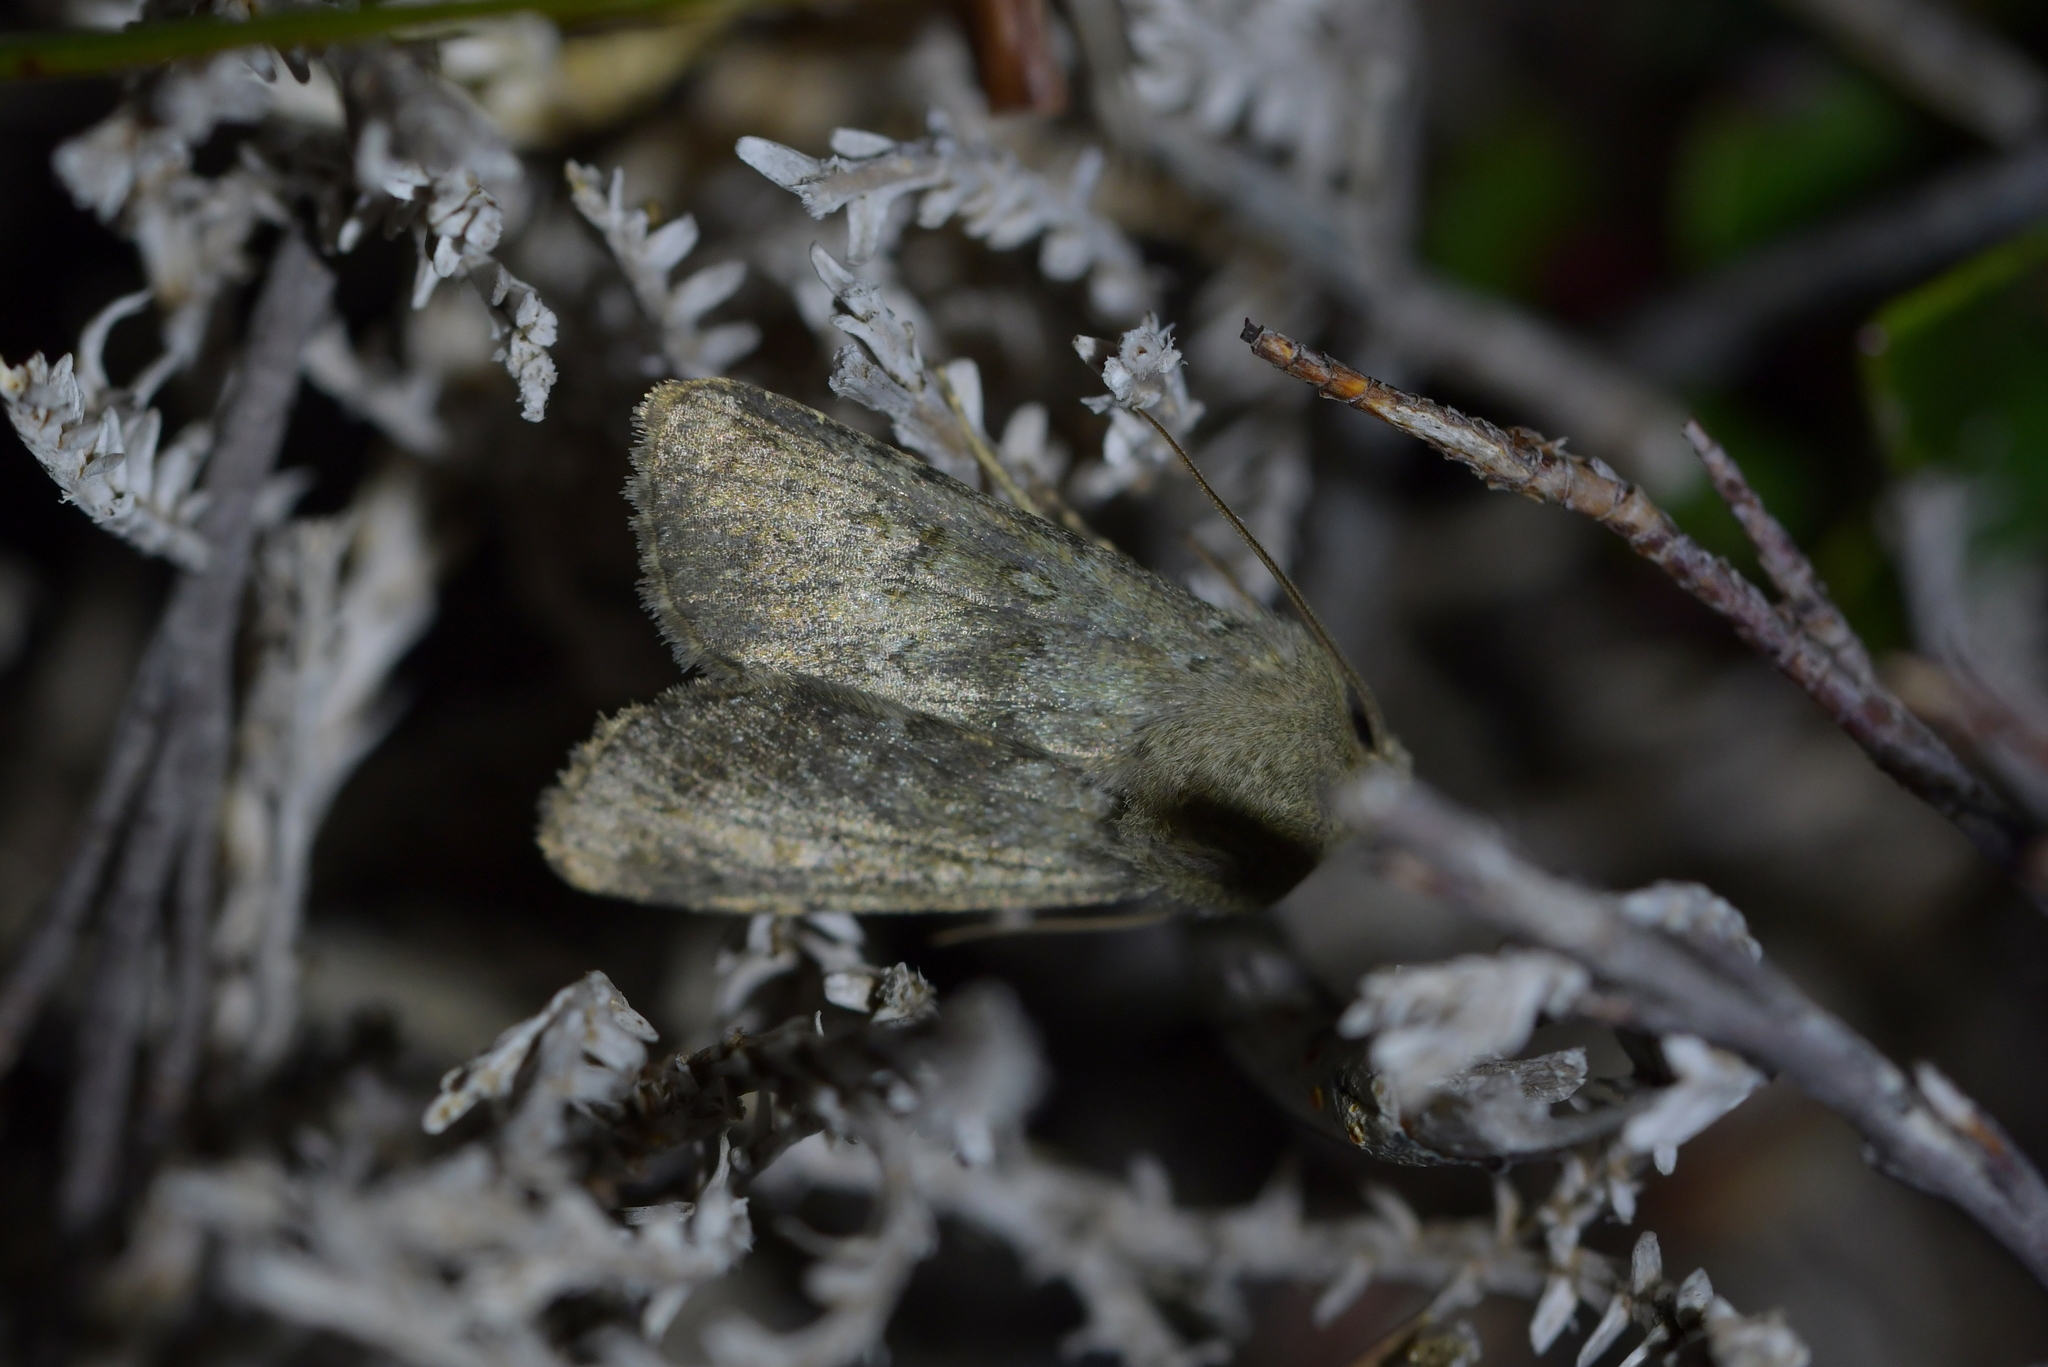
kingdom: Animalia
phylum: Arthropoda
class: Insecta
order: Lepidoptera
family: Noctuidae
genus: Ichneutica
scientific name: Ichneutica moderata
